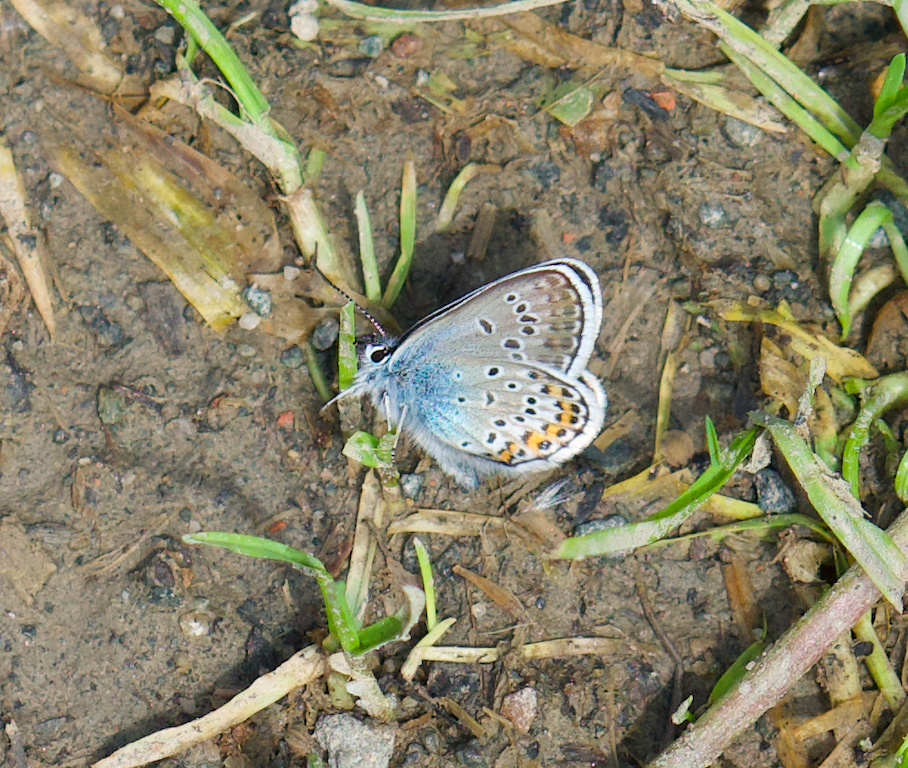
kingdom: Animalia
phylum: Arthropoda
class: Insecta
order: Lepidoptera
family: Lycaenidae
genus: Plebejus
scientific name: Plebejus argus
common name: Silver-studded blue
